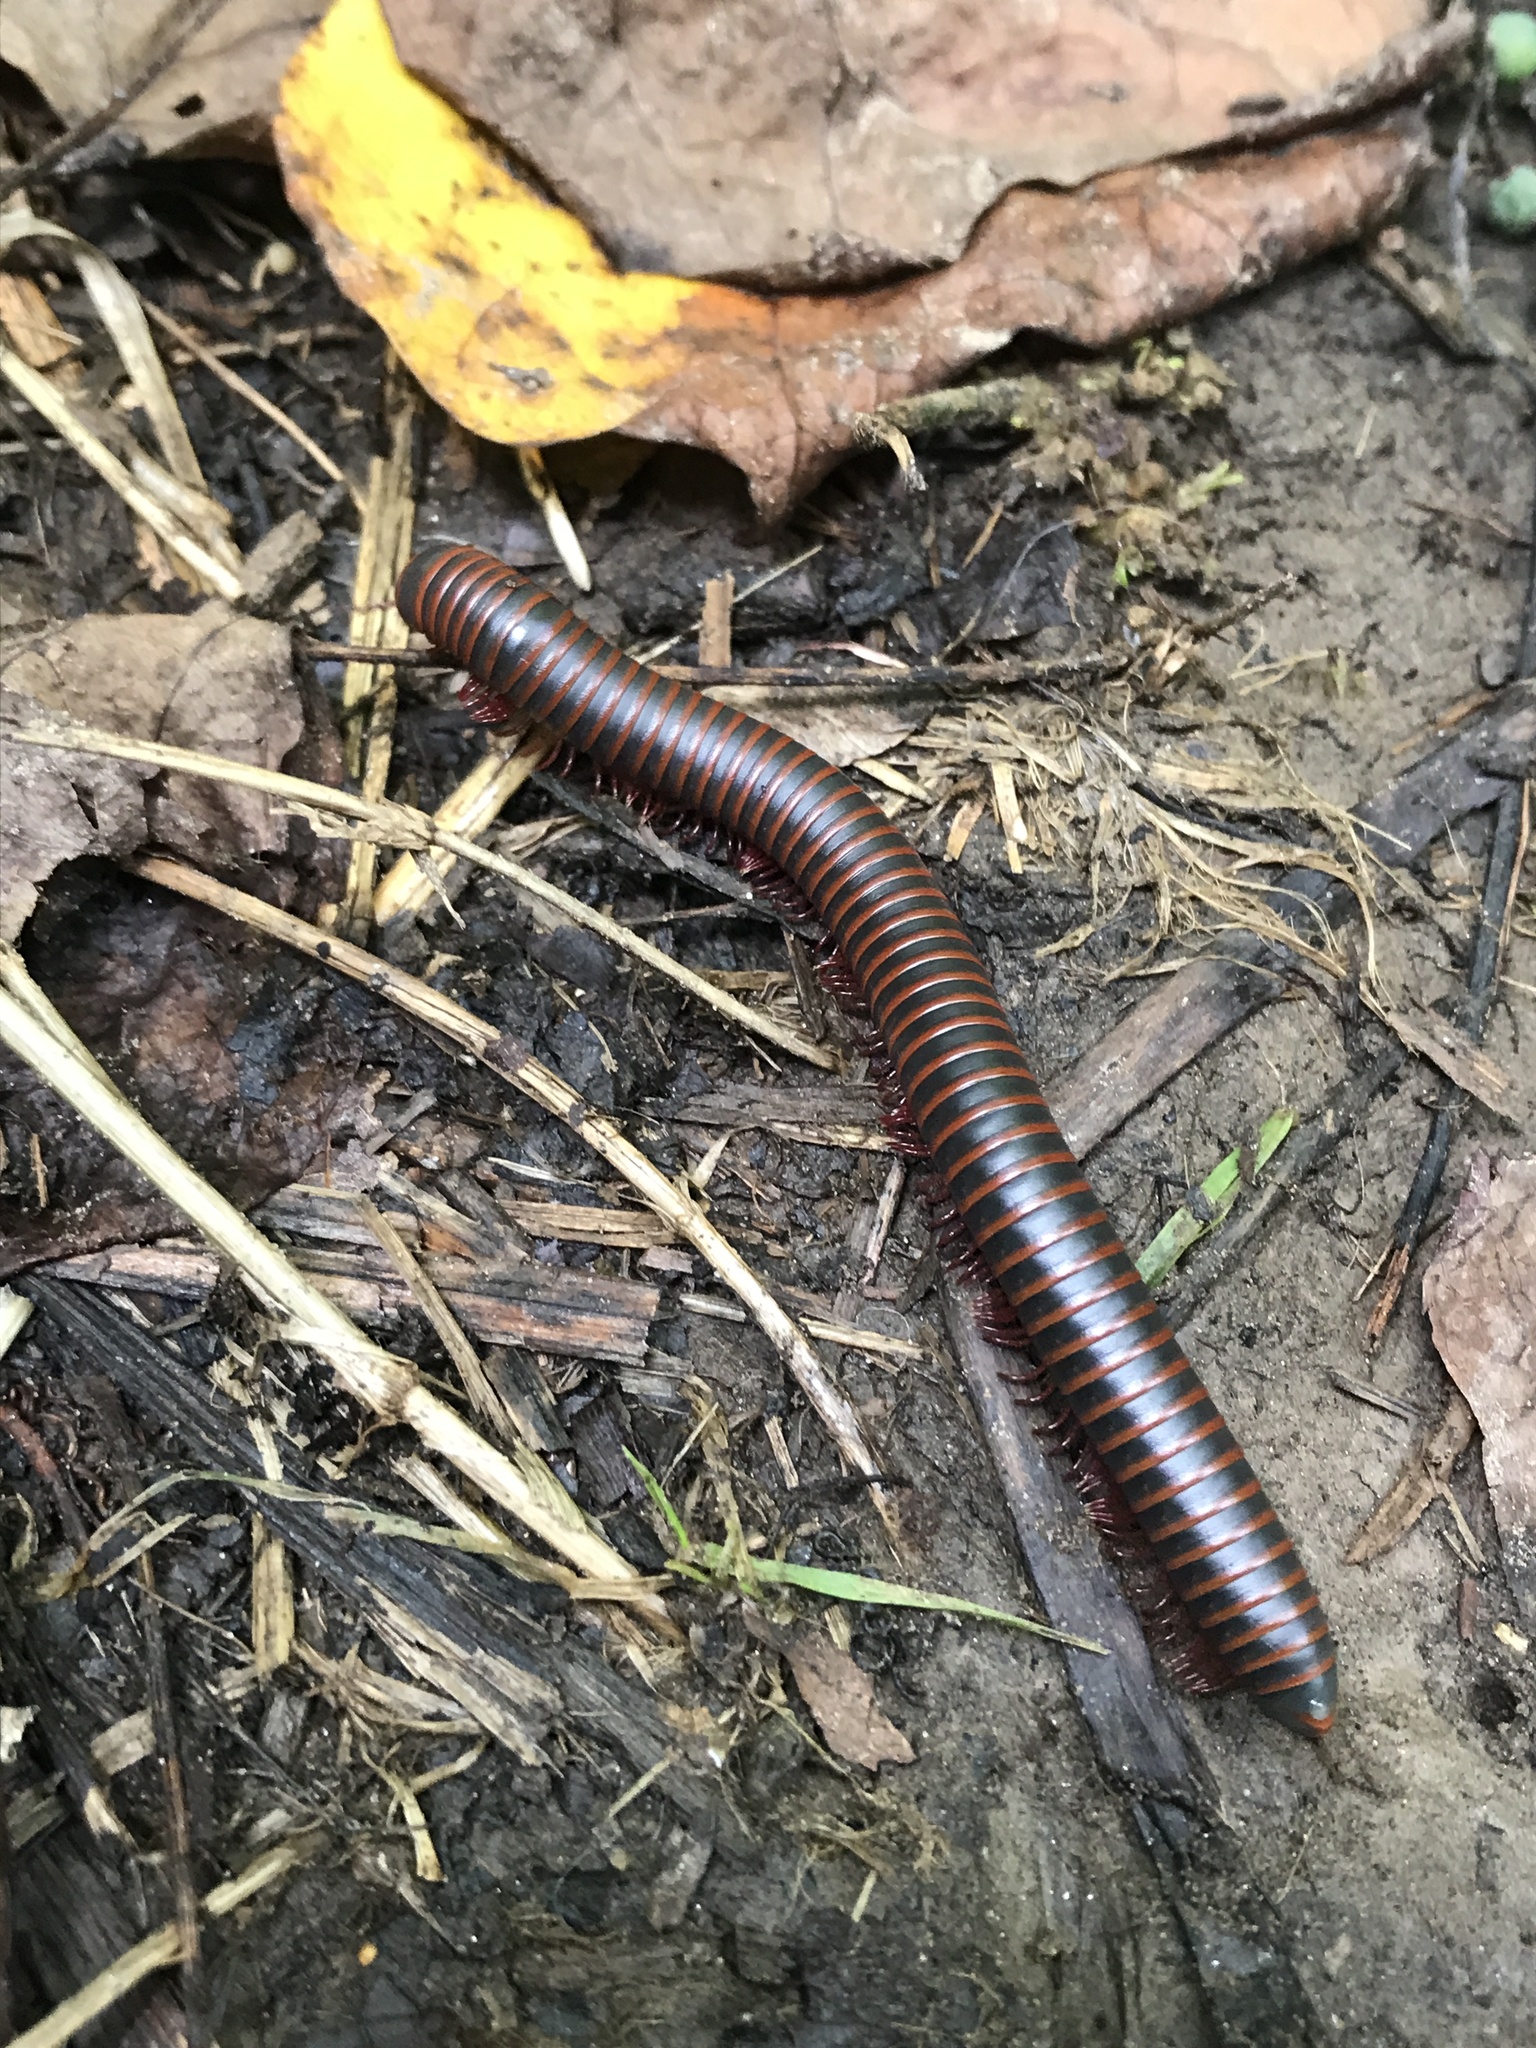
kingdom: Animalia
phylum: Arthropoda
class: Diplopoda
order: Spirobolida
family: Spirobolidae
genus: Narceus
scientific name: Narceus
